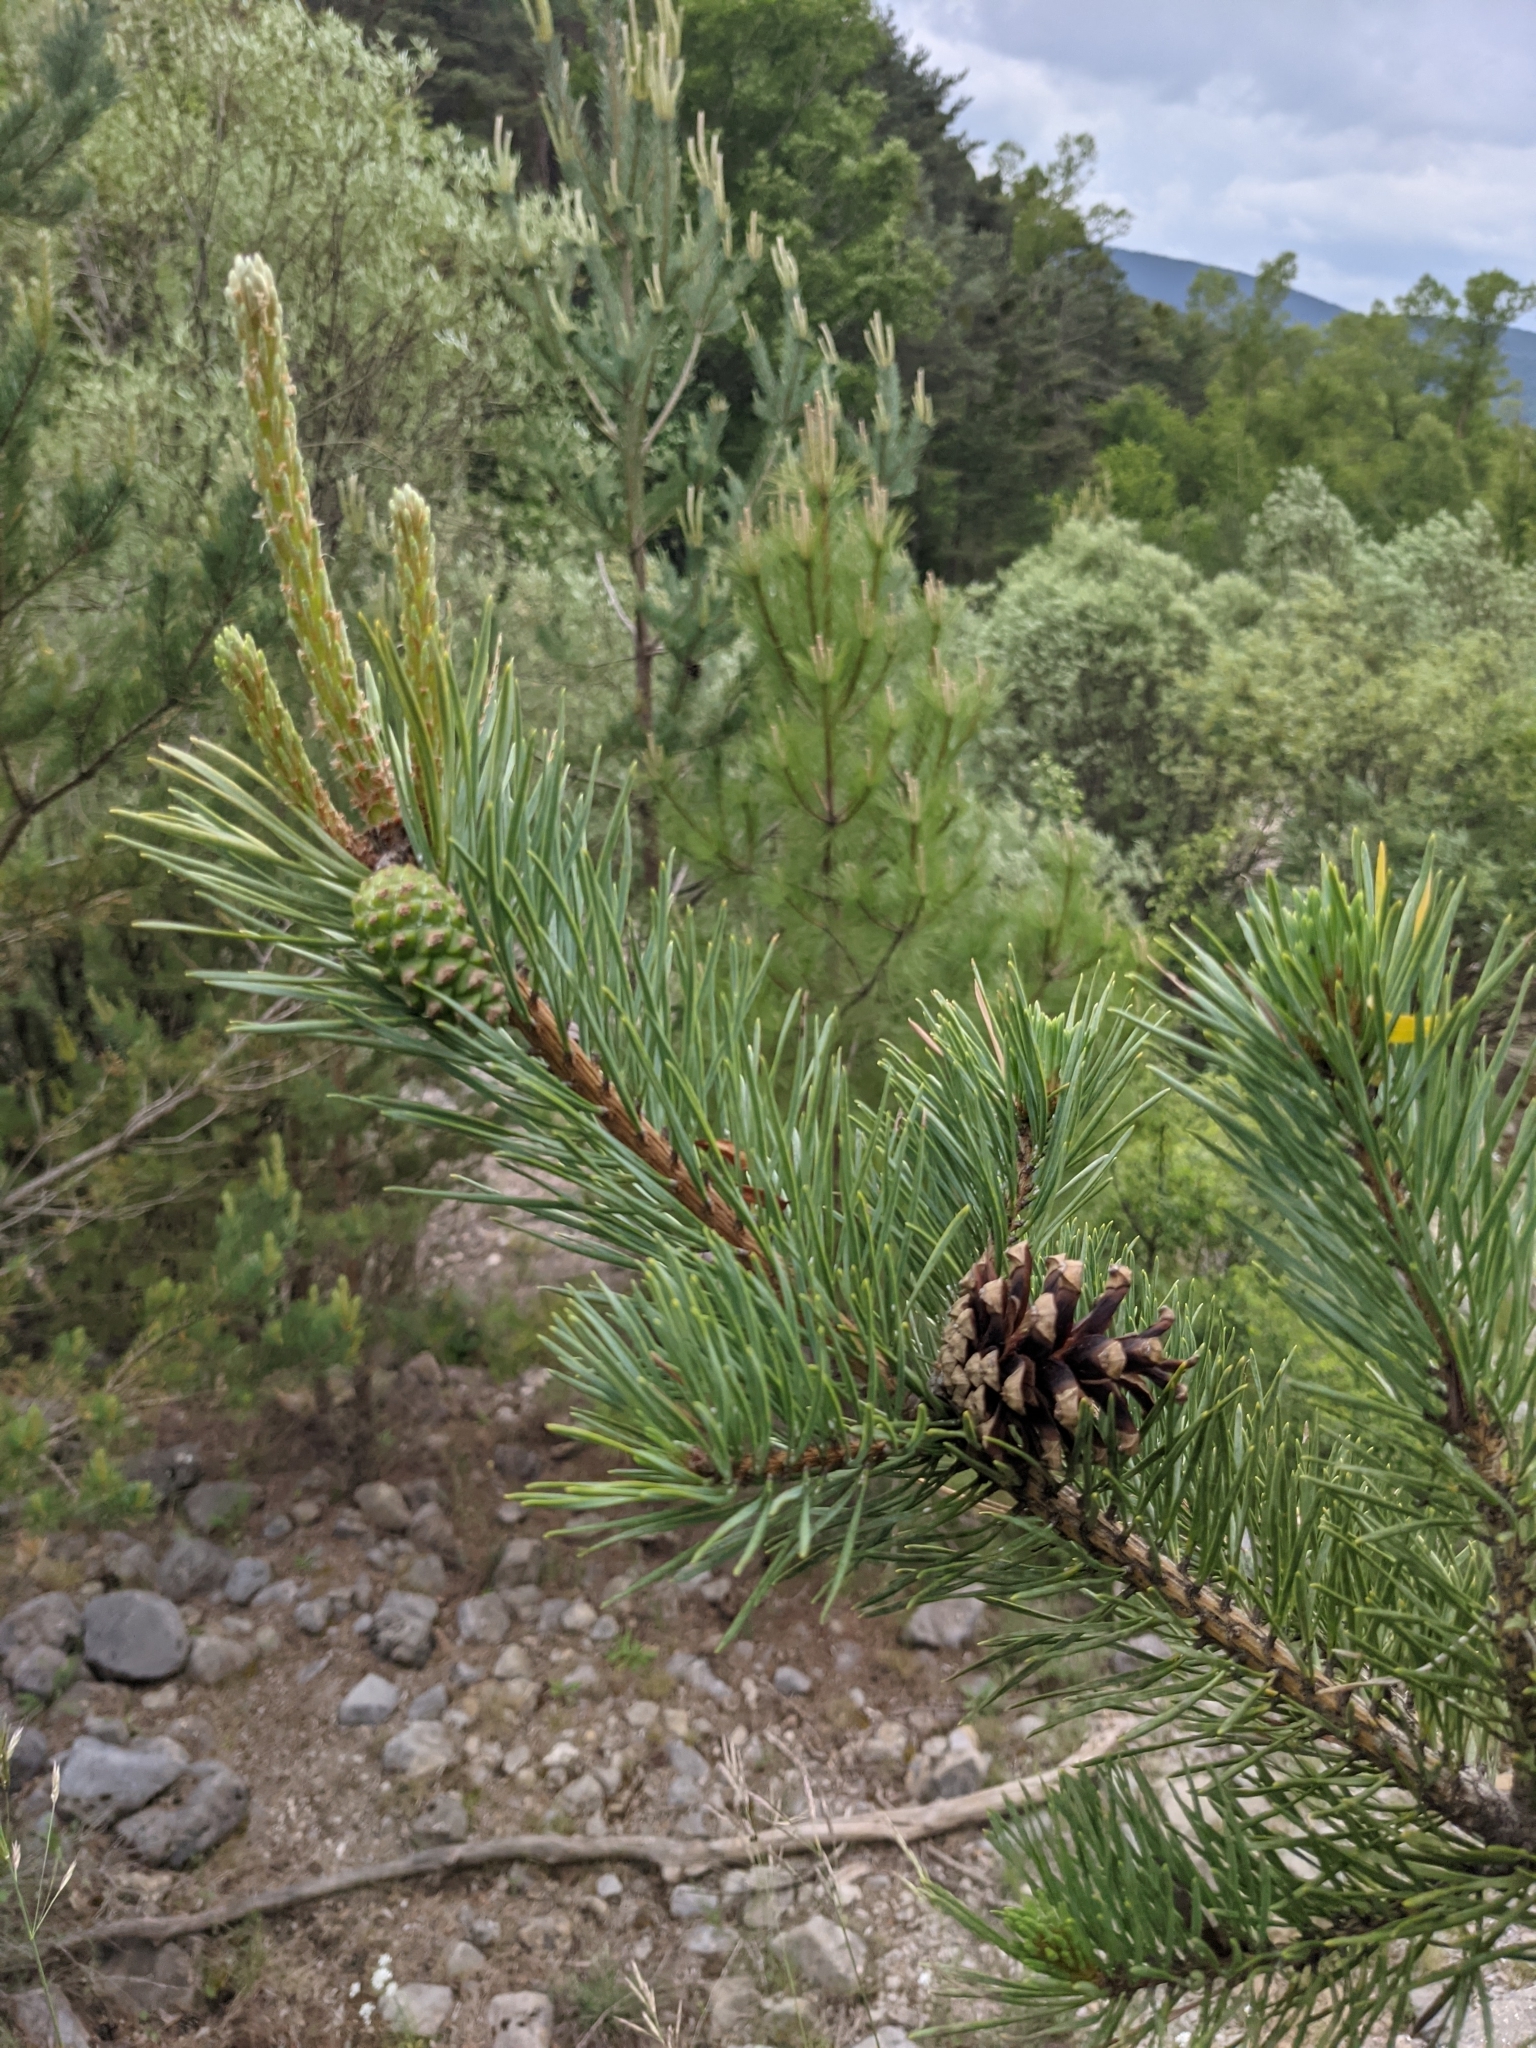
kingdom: Plantae
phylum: Tracheophyta
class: Pinopsida
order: Pinales
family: Pinaceae
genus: Pinus
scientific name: Pinus sylvestris
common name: Scots pine
